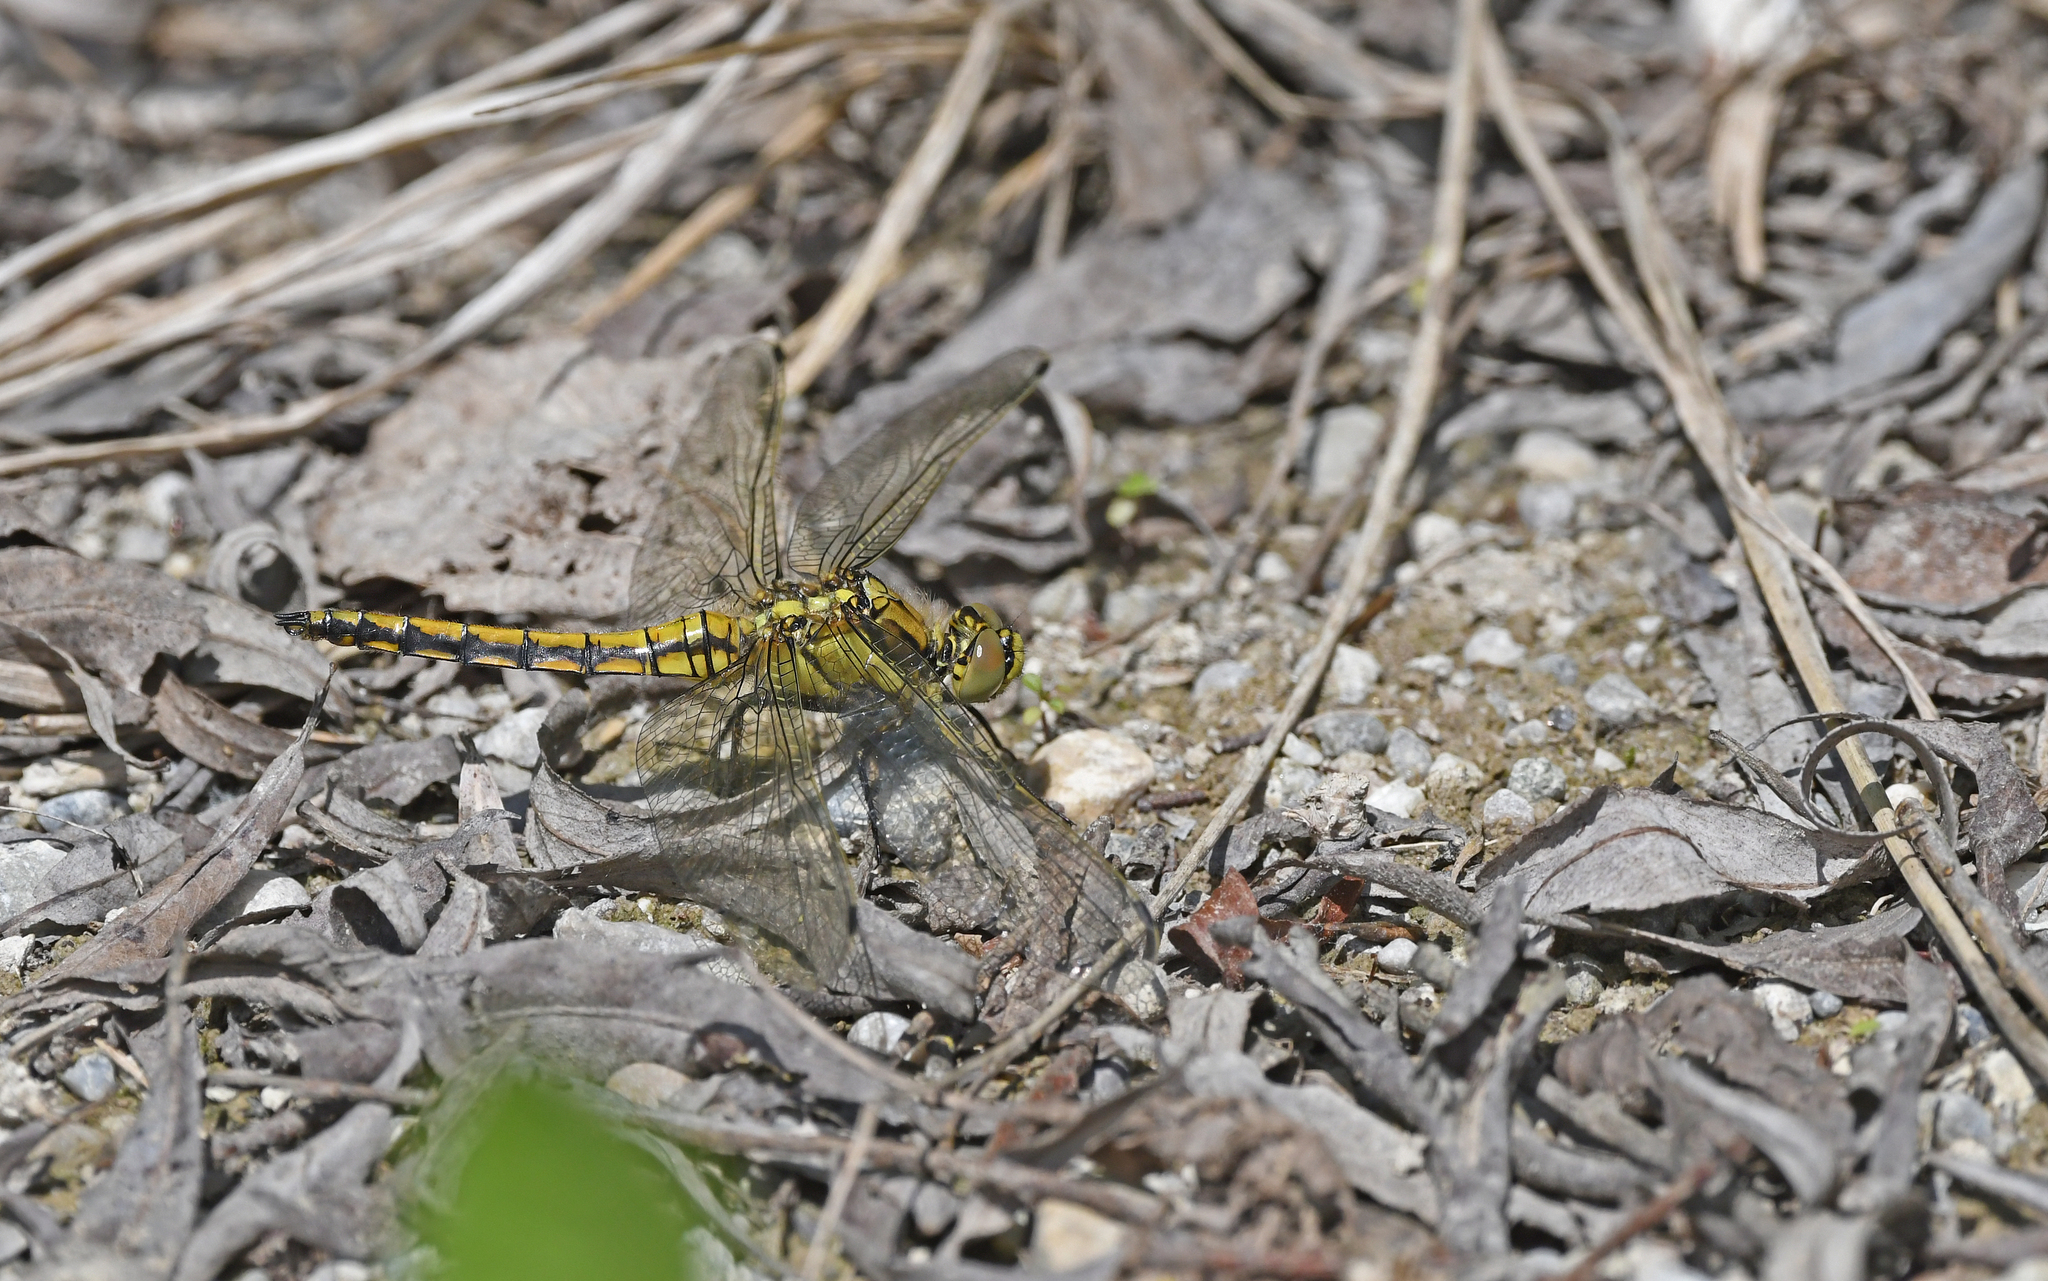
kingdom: Animalia
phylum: Arthropoda
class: Insecta
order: Odonata
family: Libellulidae
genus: Orthetrum
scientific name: Orthetrum cancellatum
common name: Black-tailed skimmer
